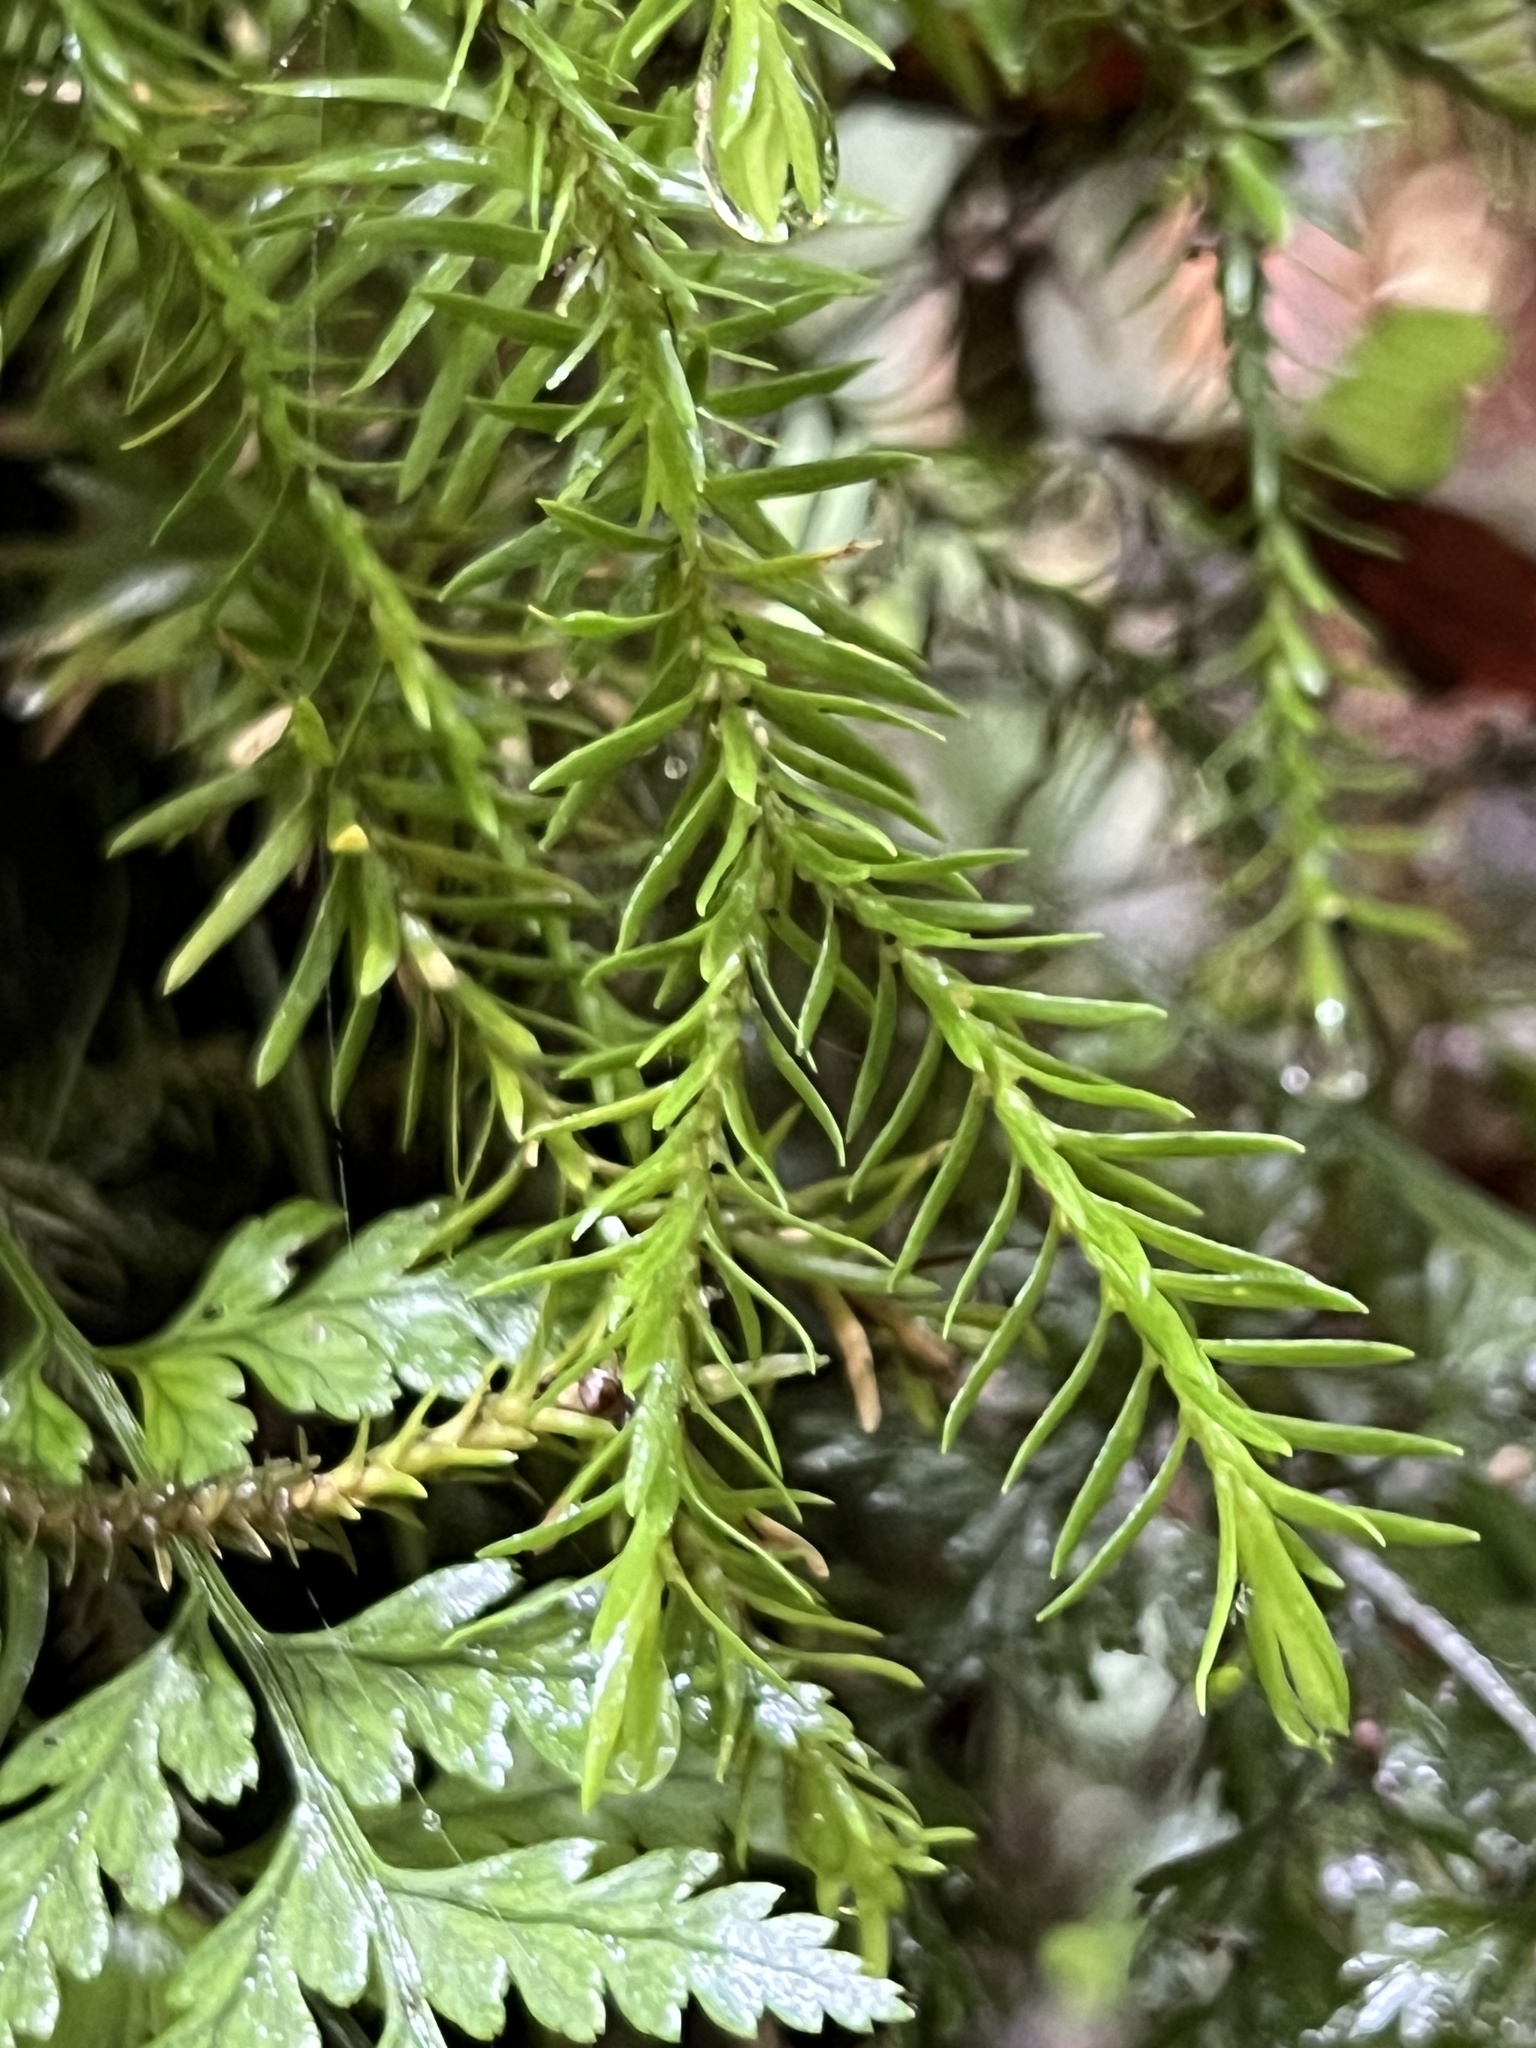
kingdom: Plantae
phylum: Tracheophyta
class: Lycopodiopsida
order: Lycopodiales
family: Lycopodiaceae
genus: Phlegmariurus
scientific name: Phlegmariurus varius
